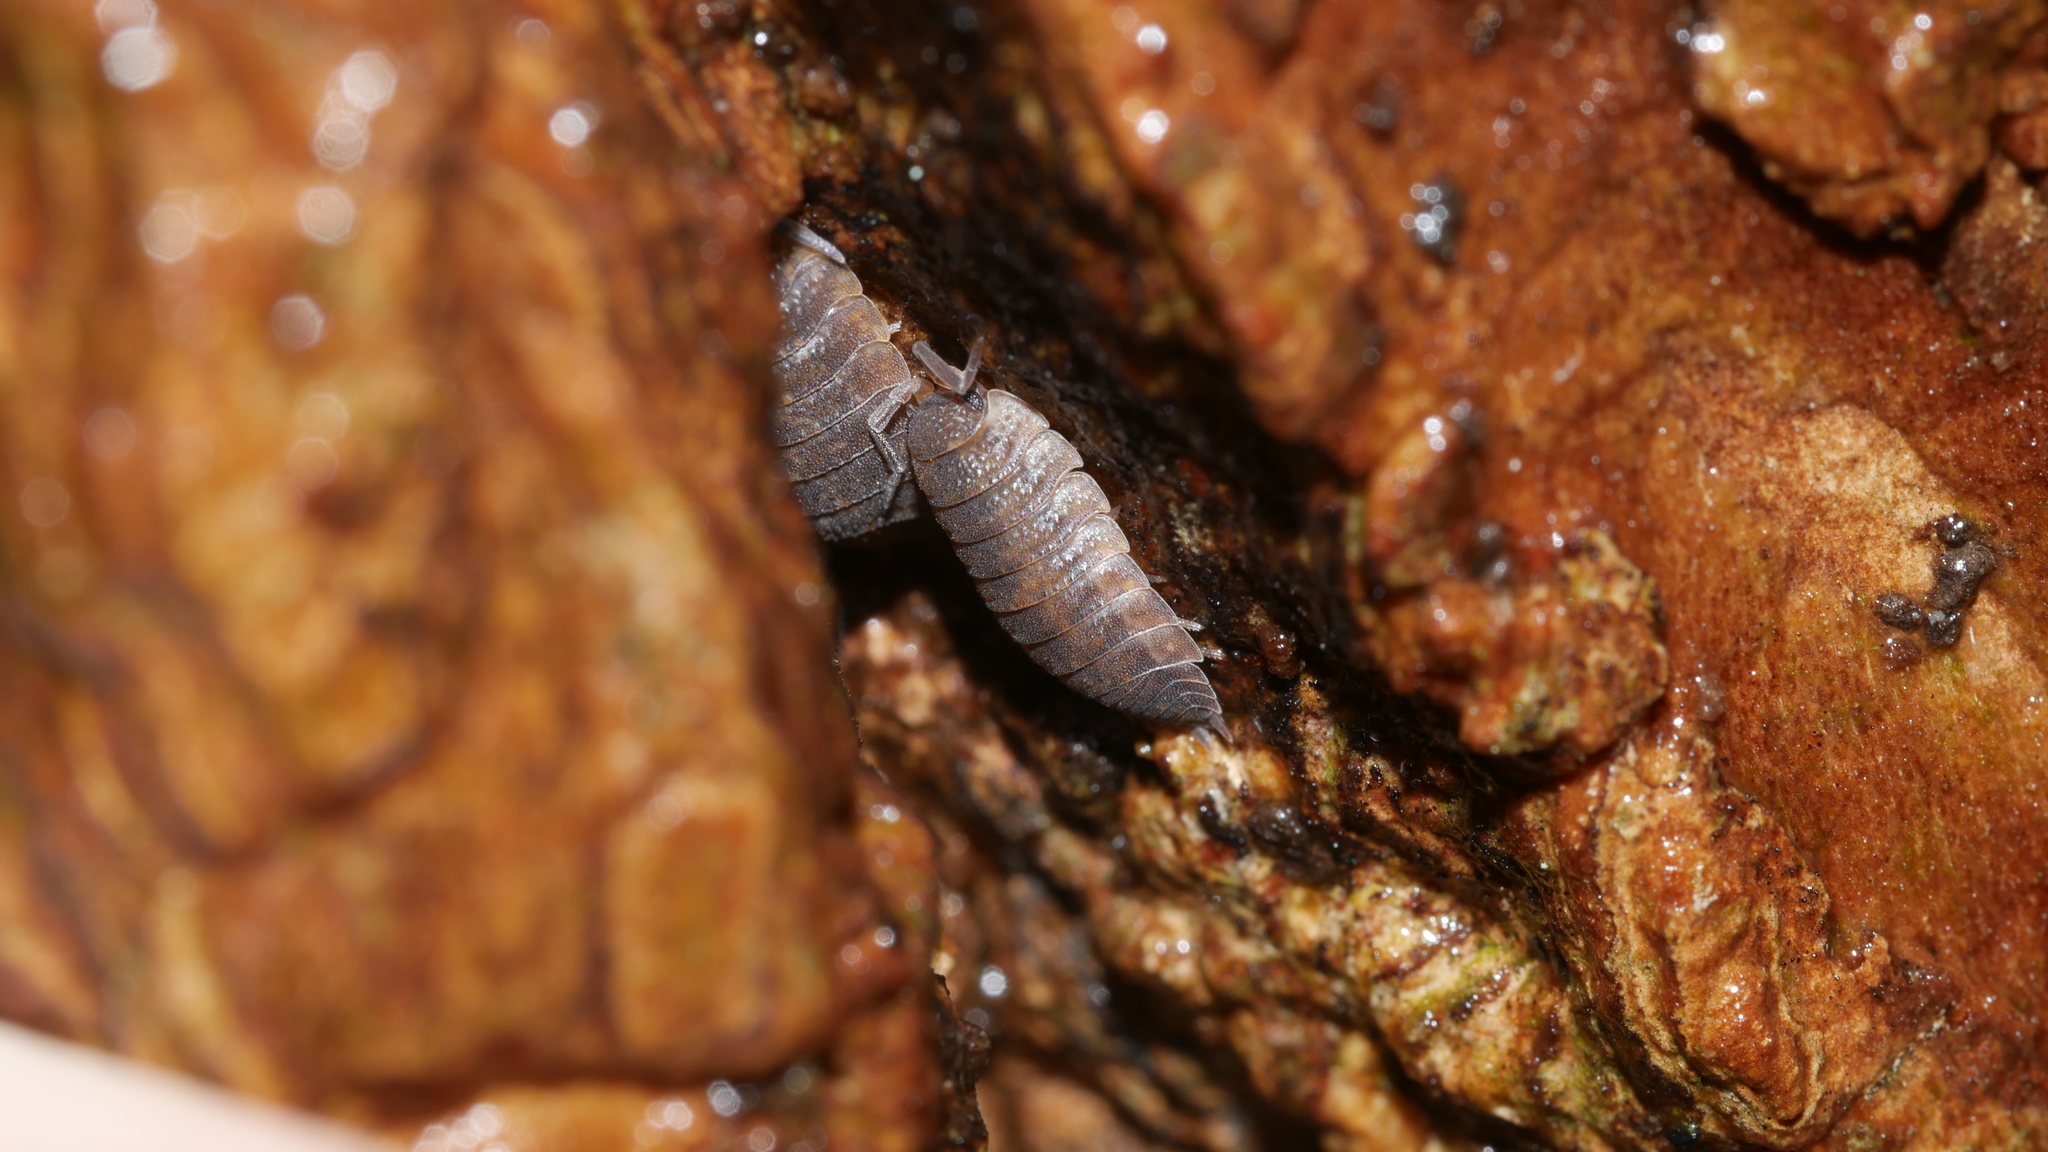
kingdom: Animalia
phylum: Arthropoda
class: Malacostraca
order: Isopoda
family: Porcellionidae
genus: Porcellio
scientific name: Porcellio scaber
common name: Common rough woodlouse
